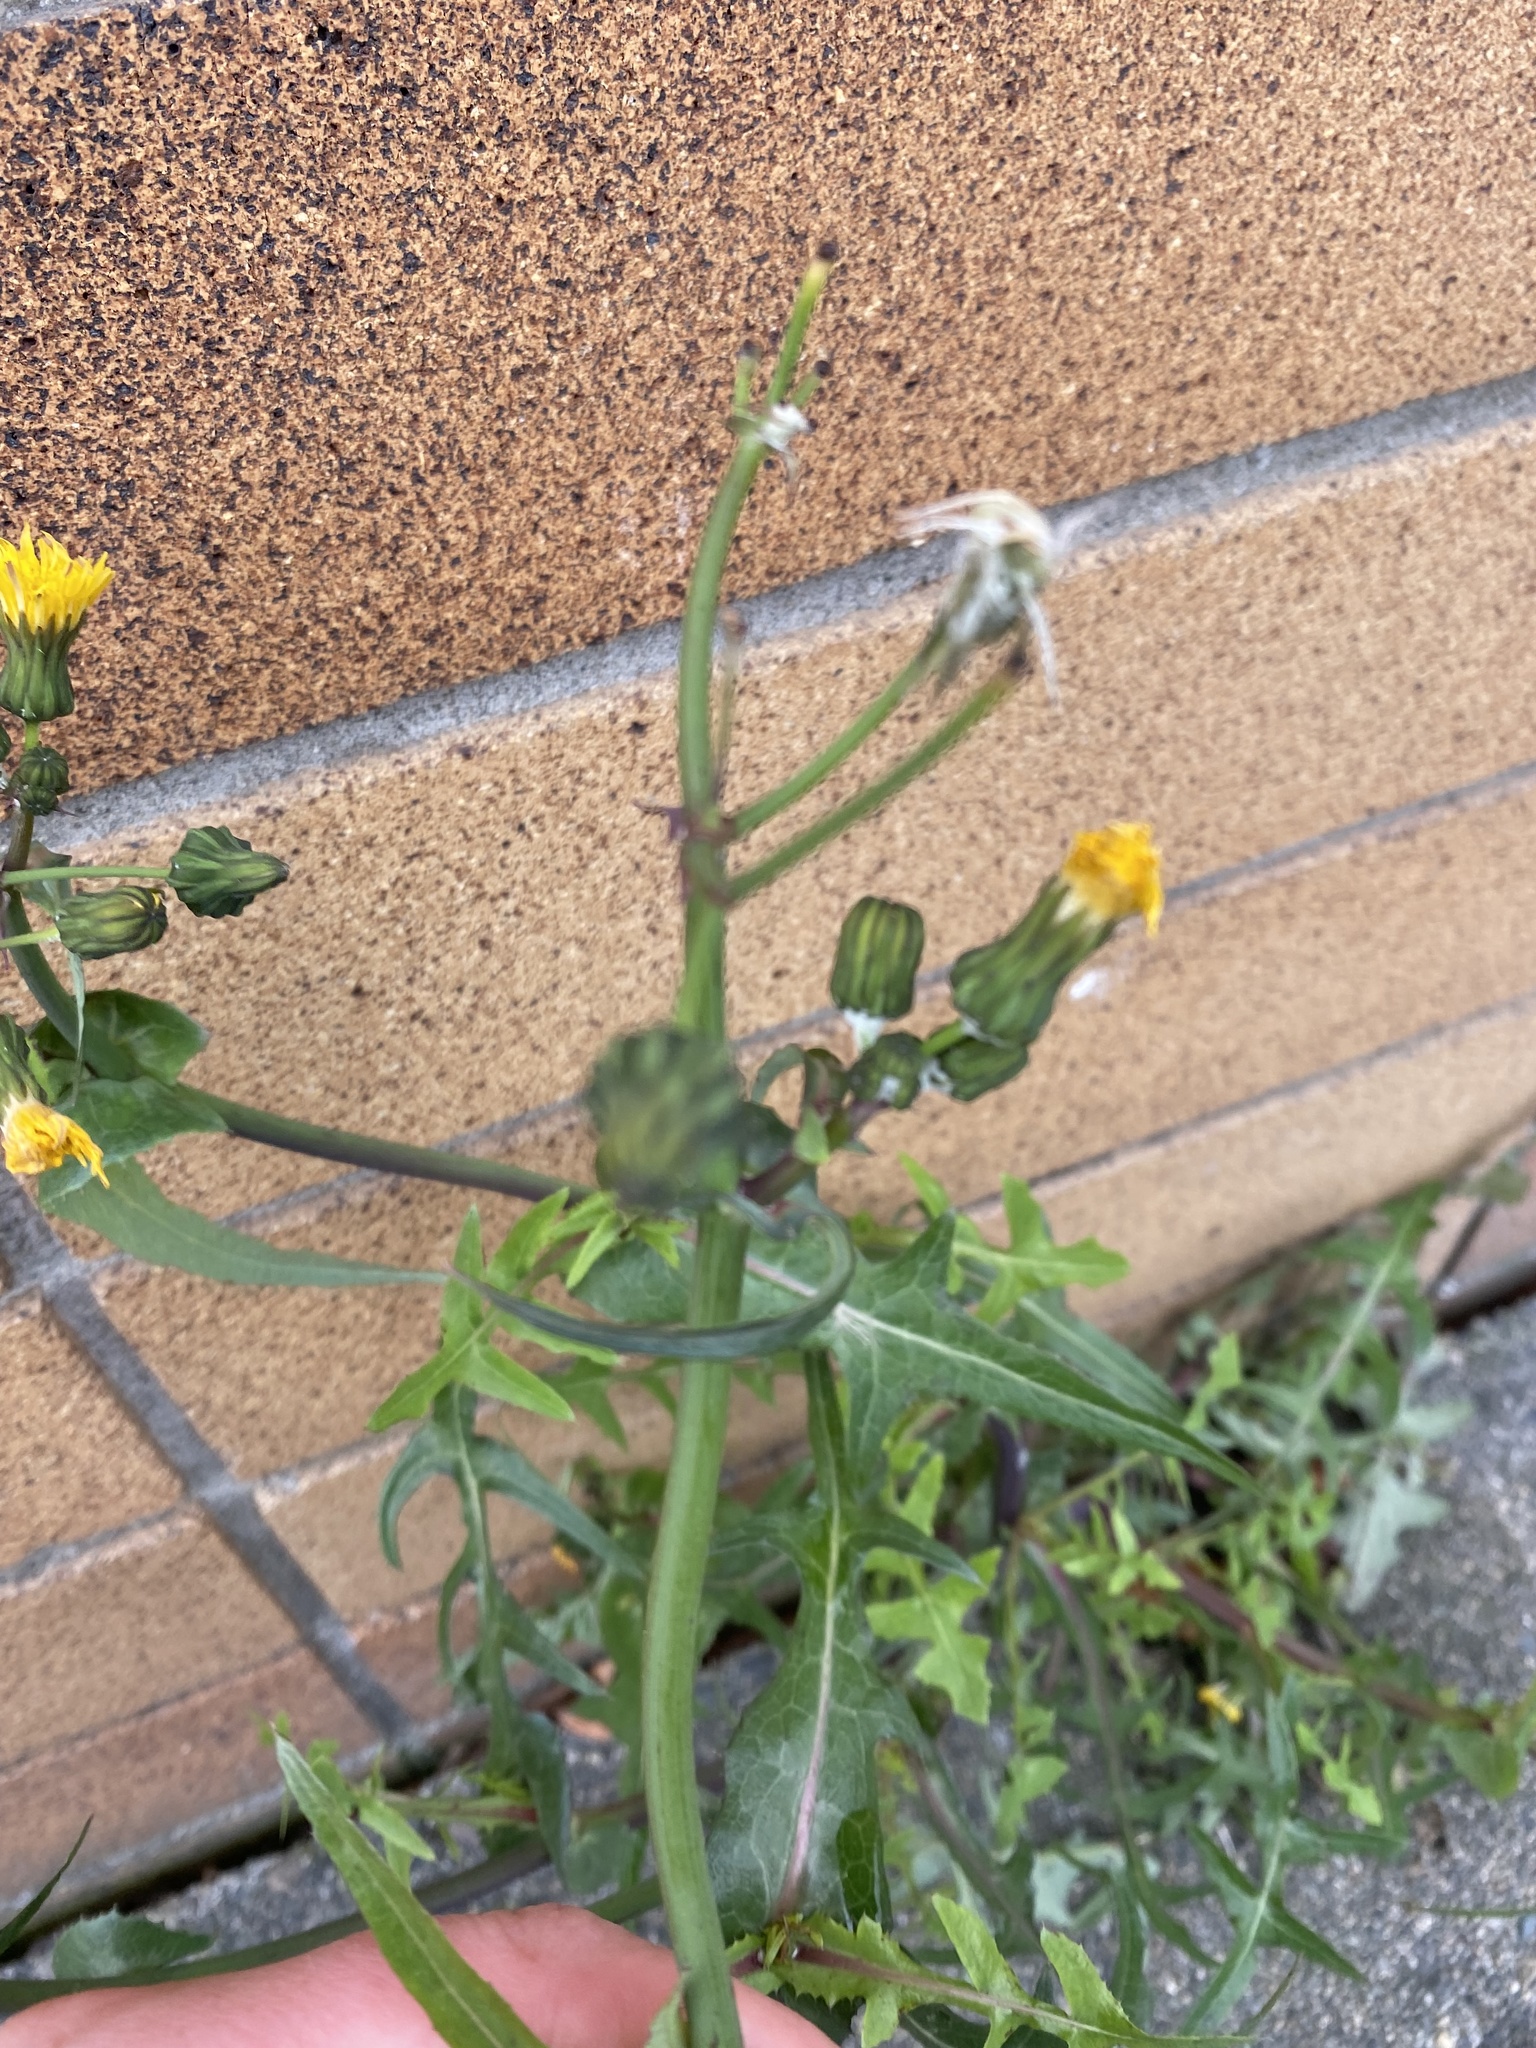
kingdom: Plantae
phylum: Tracheophyta
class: Magnoliopsida
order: Asterales
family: Asteraceae
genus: Sonchus
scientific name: Sonchus arvensis
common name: Perennial sow-thistle
